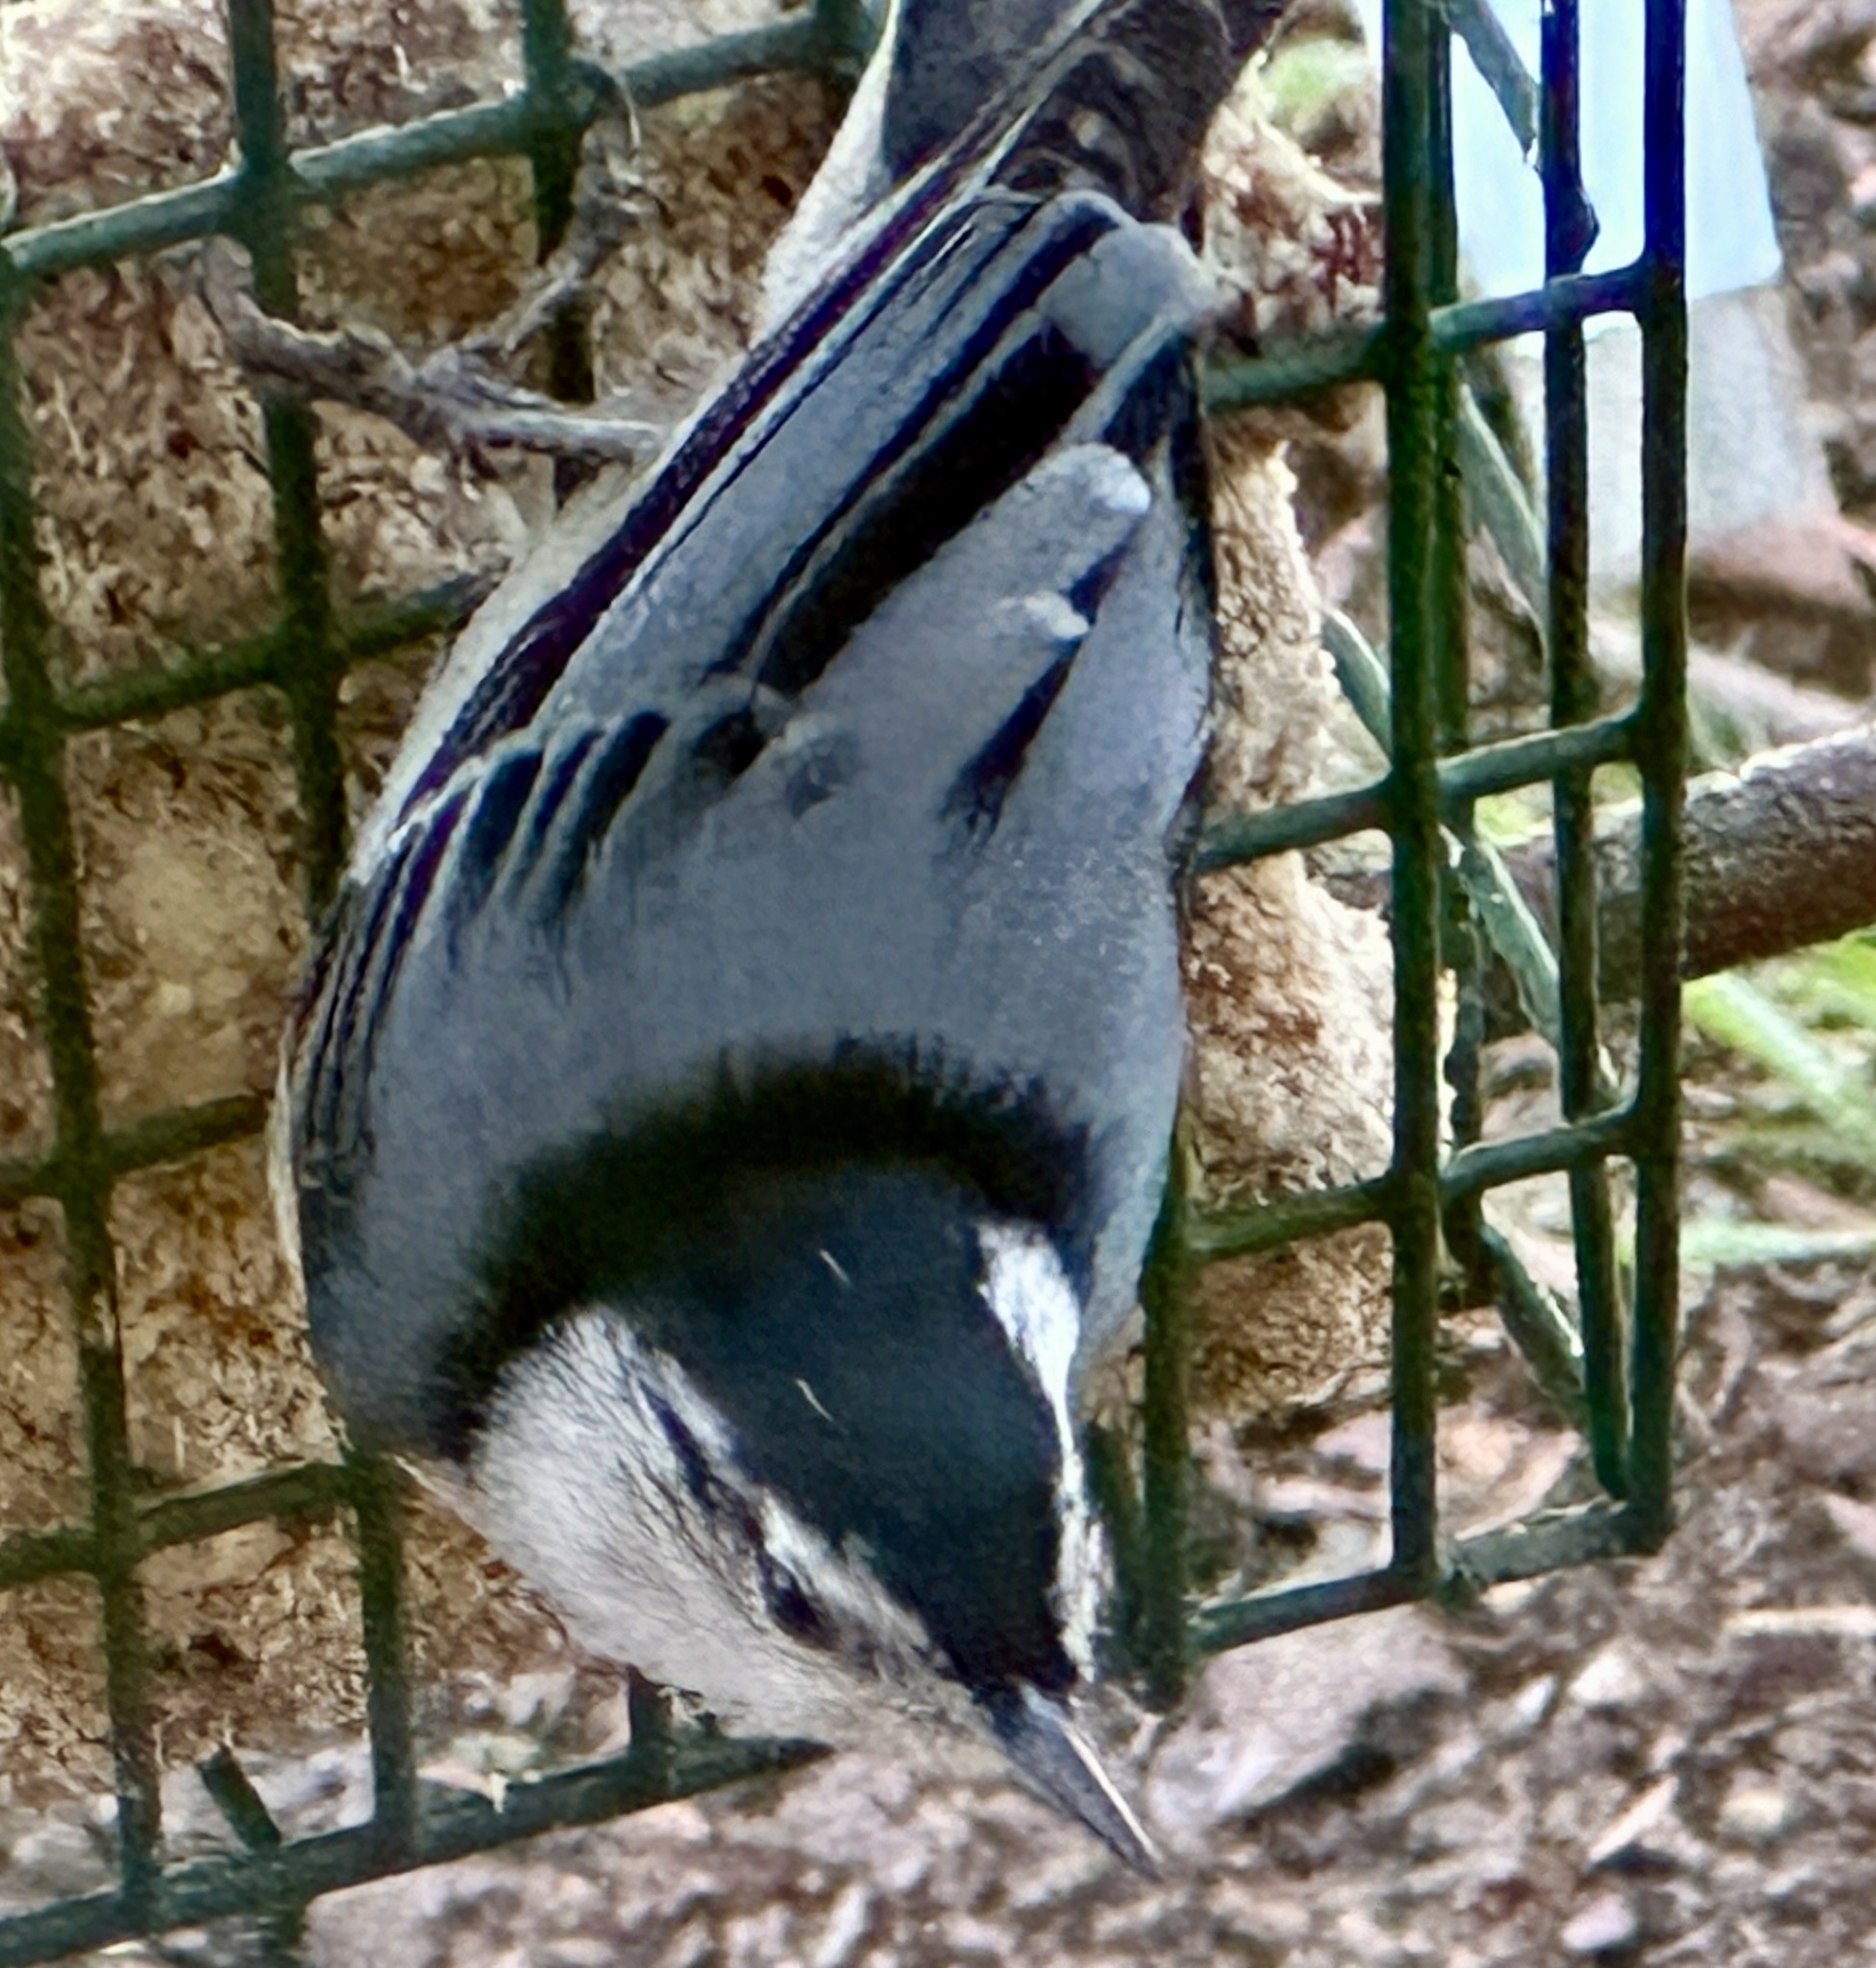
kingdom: Animalia
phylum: Chordata
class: Aves
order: Passeriformes
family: Sittidae
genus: Sitta
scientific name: Sitta carolinensis
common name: White-breasted nuthatch
